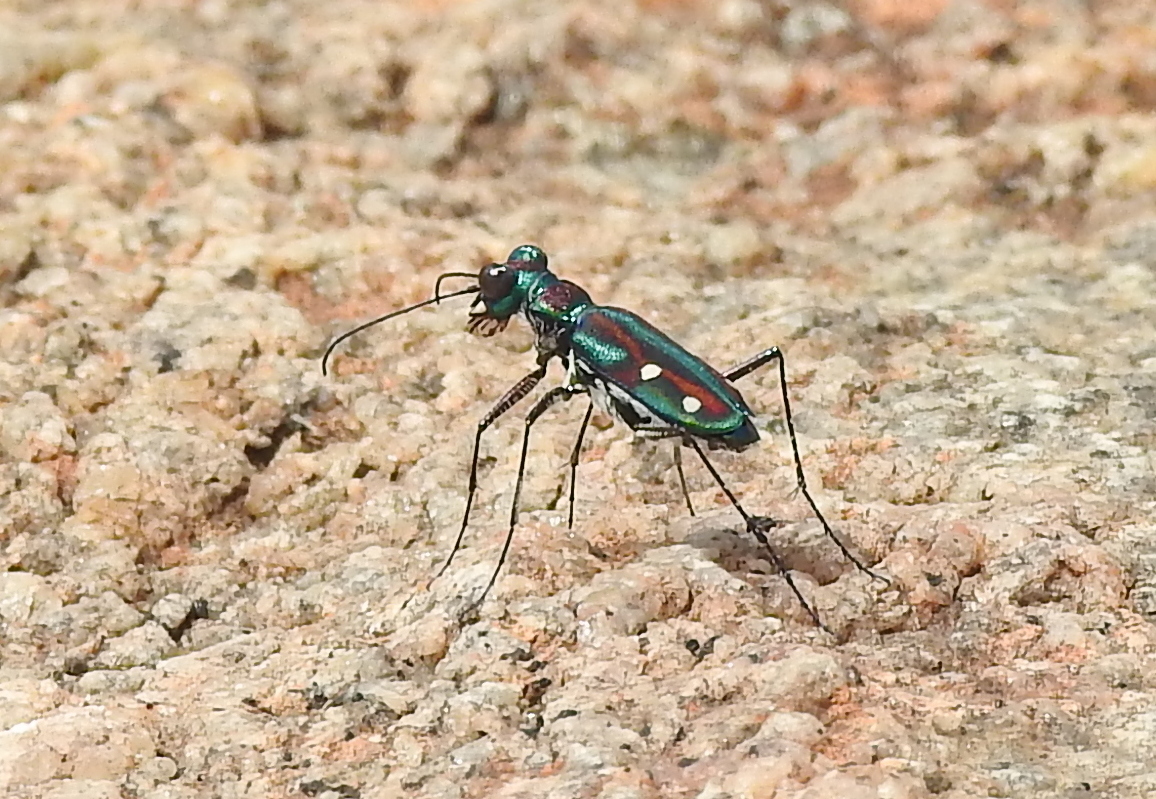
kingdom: Animalia
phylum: Arthropoda
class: Insecta
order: Coleoptera
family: Carabidae
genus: Jansenia
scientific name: Jansenia rugosiceps
